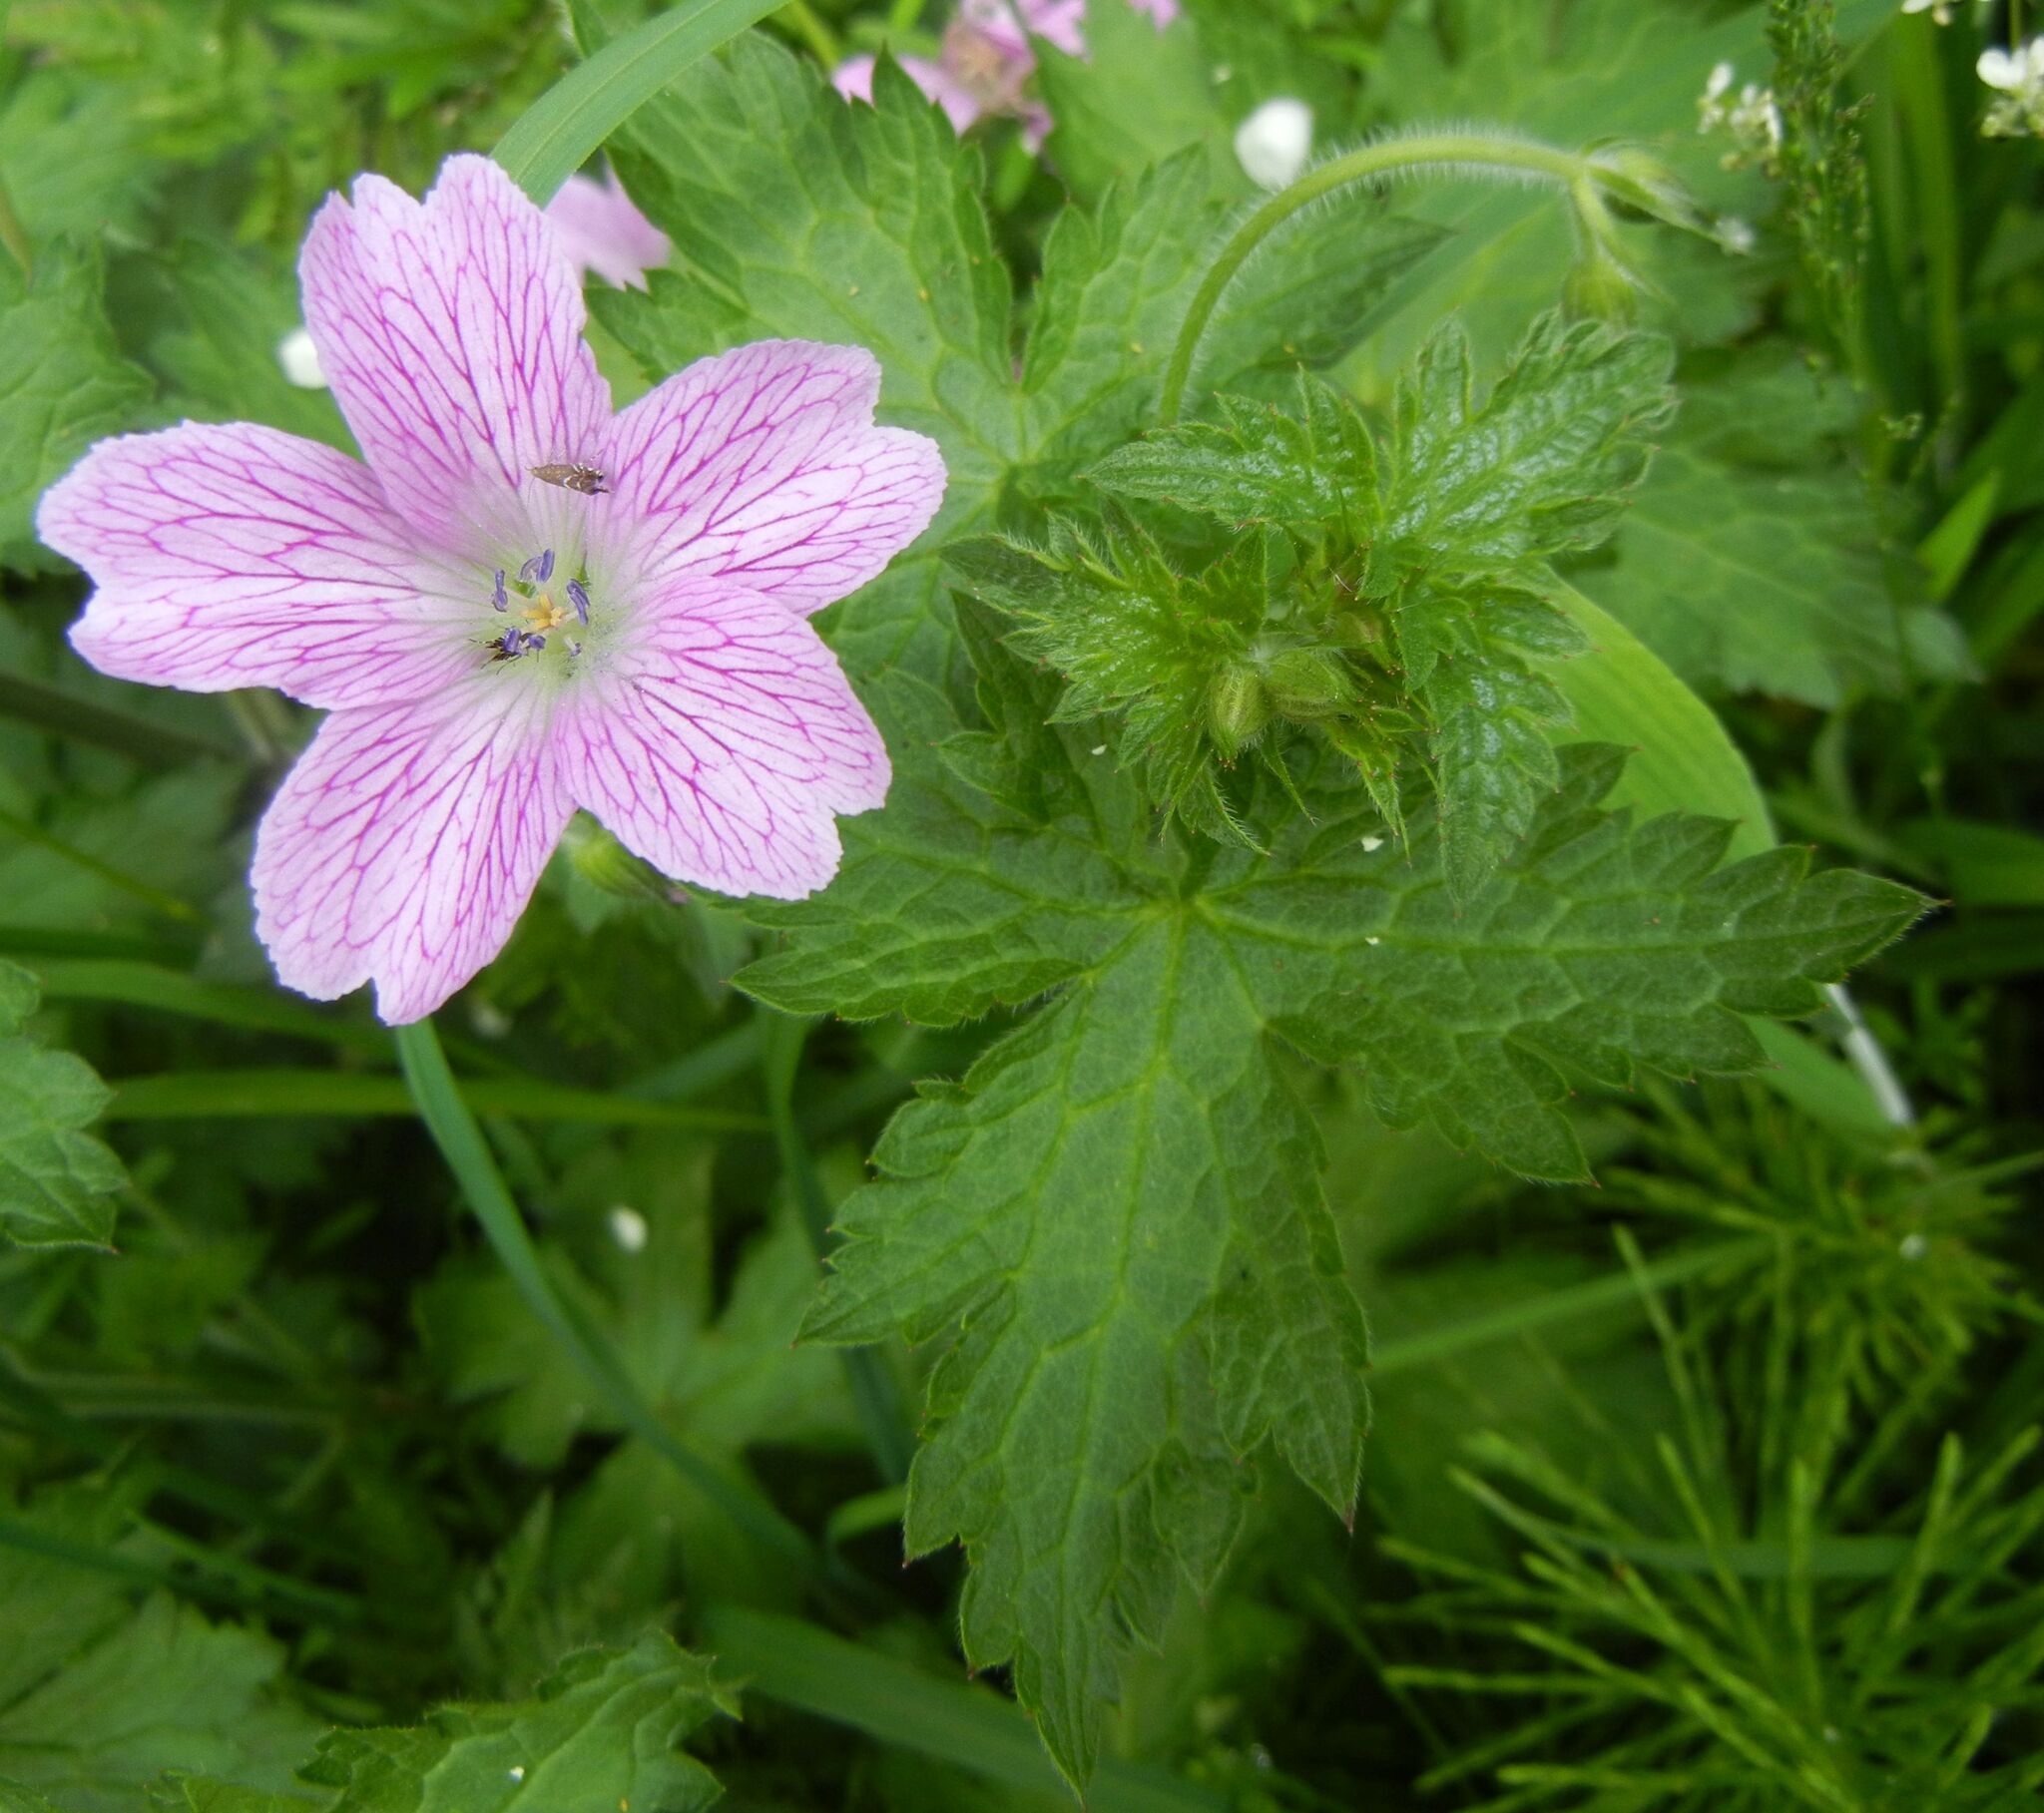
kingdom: Plantae
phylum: Tracheophyta
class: Magnoliopsida
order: Geraniales
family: Geraniaceae
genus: Geranium
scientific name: Geranium oxonianum
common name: Druce's crane's-bill
